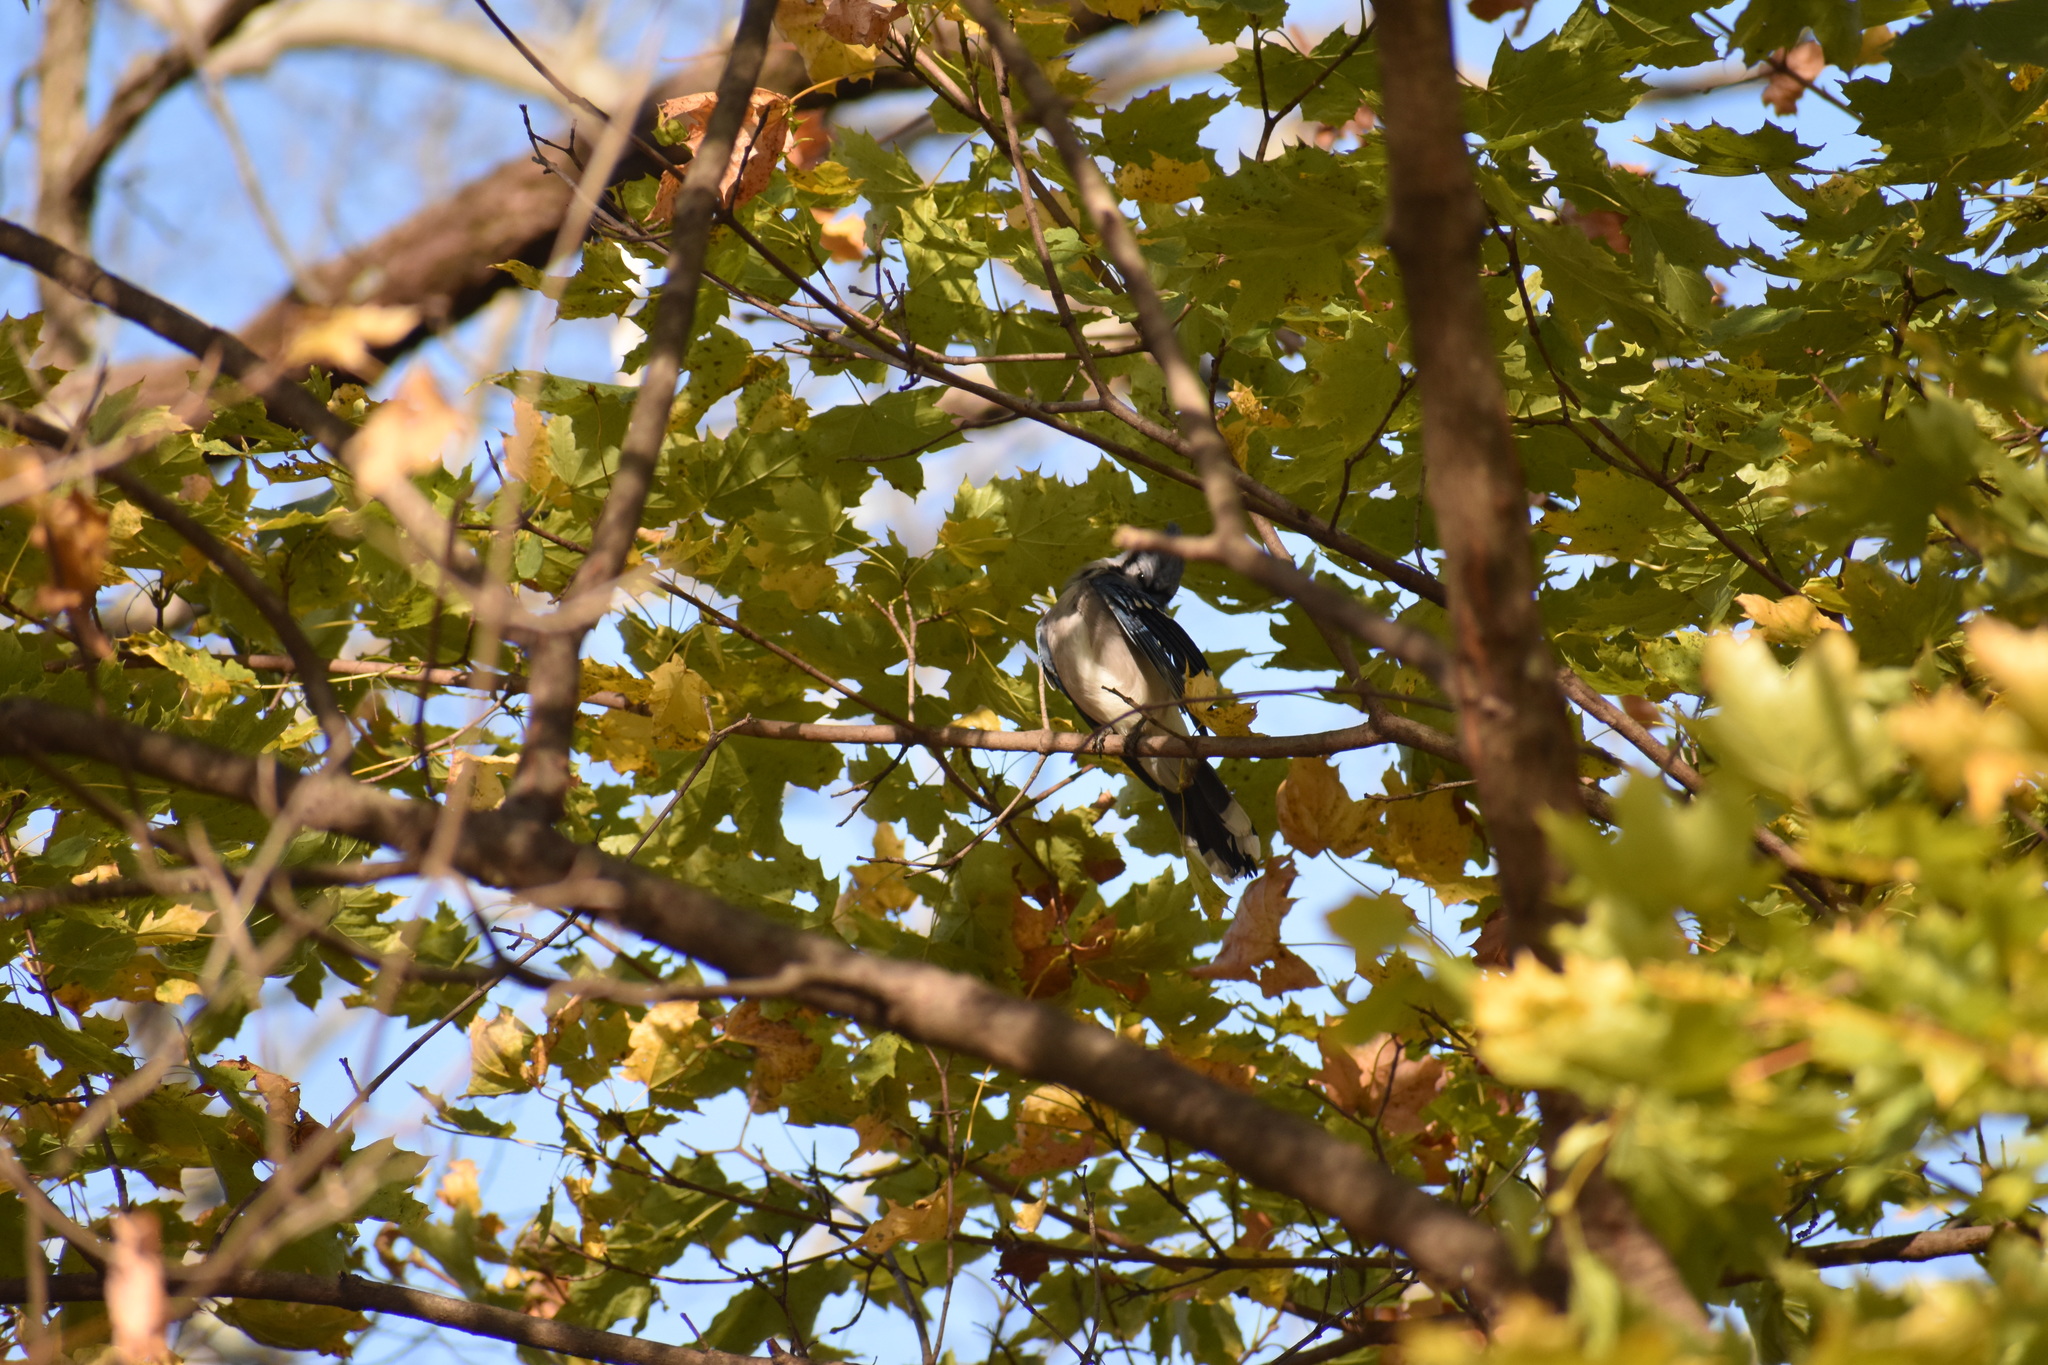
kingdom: Animalia
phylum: Chordata
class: Aves
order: Passeriformes
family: Corvidae
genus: Cyanocitta
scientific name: Cyanocitta cristata
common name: Blue jay
